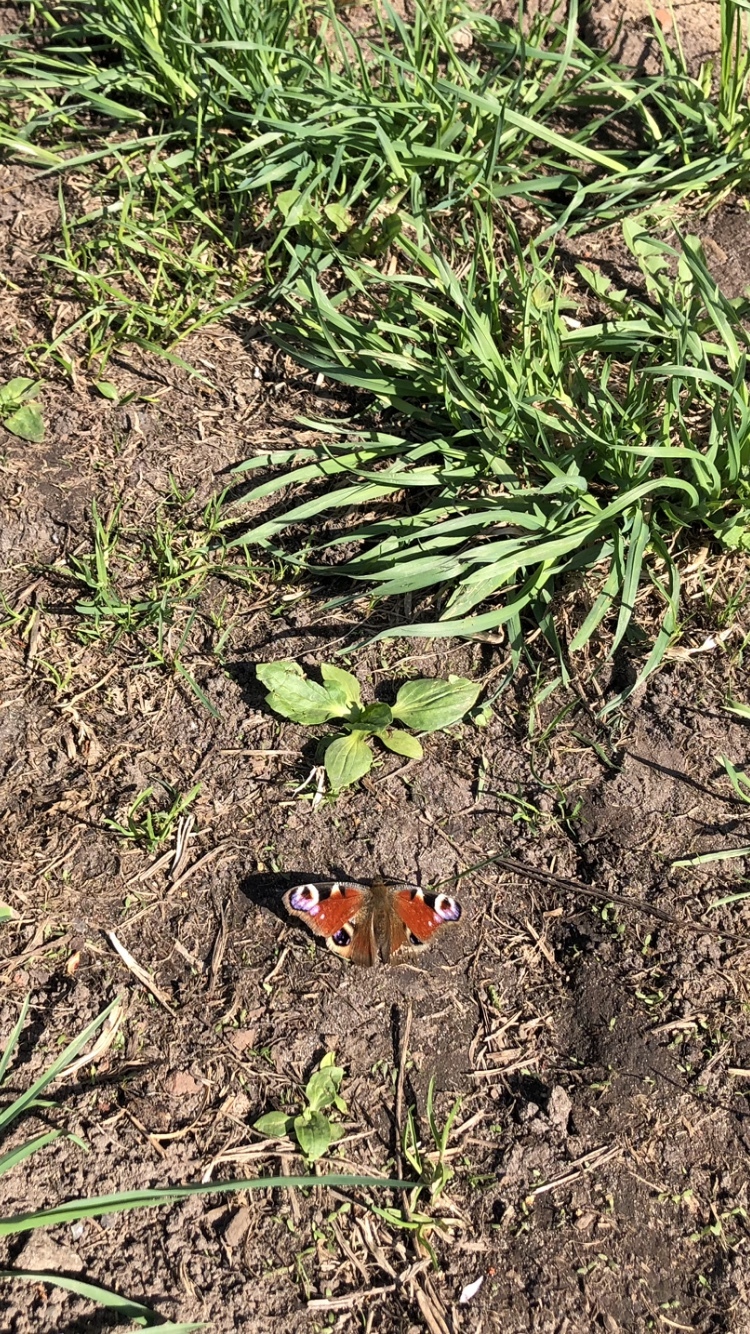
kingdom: Animalia
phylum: Arthropoda
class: Insecta
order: Lepidoptera
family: Nymphalidae
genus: Aglais
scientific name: Aglais io
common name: Peacock
